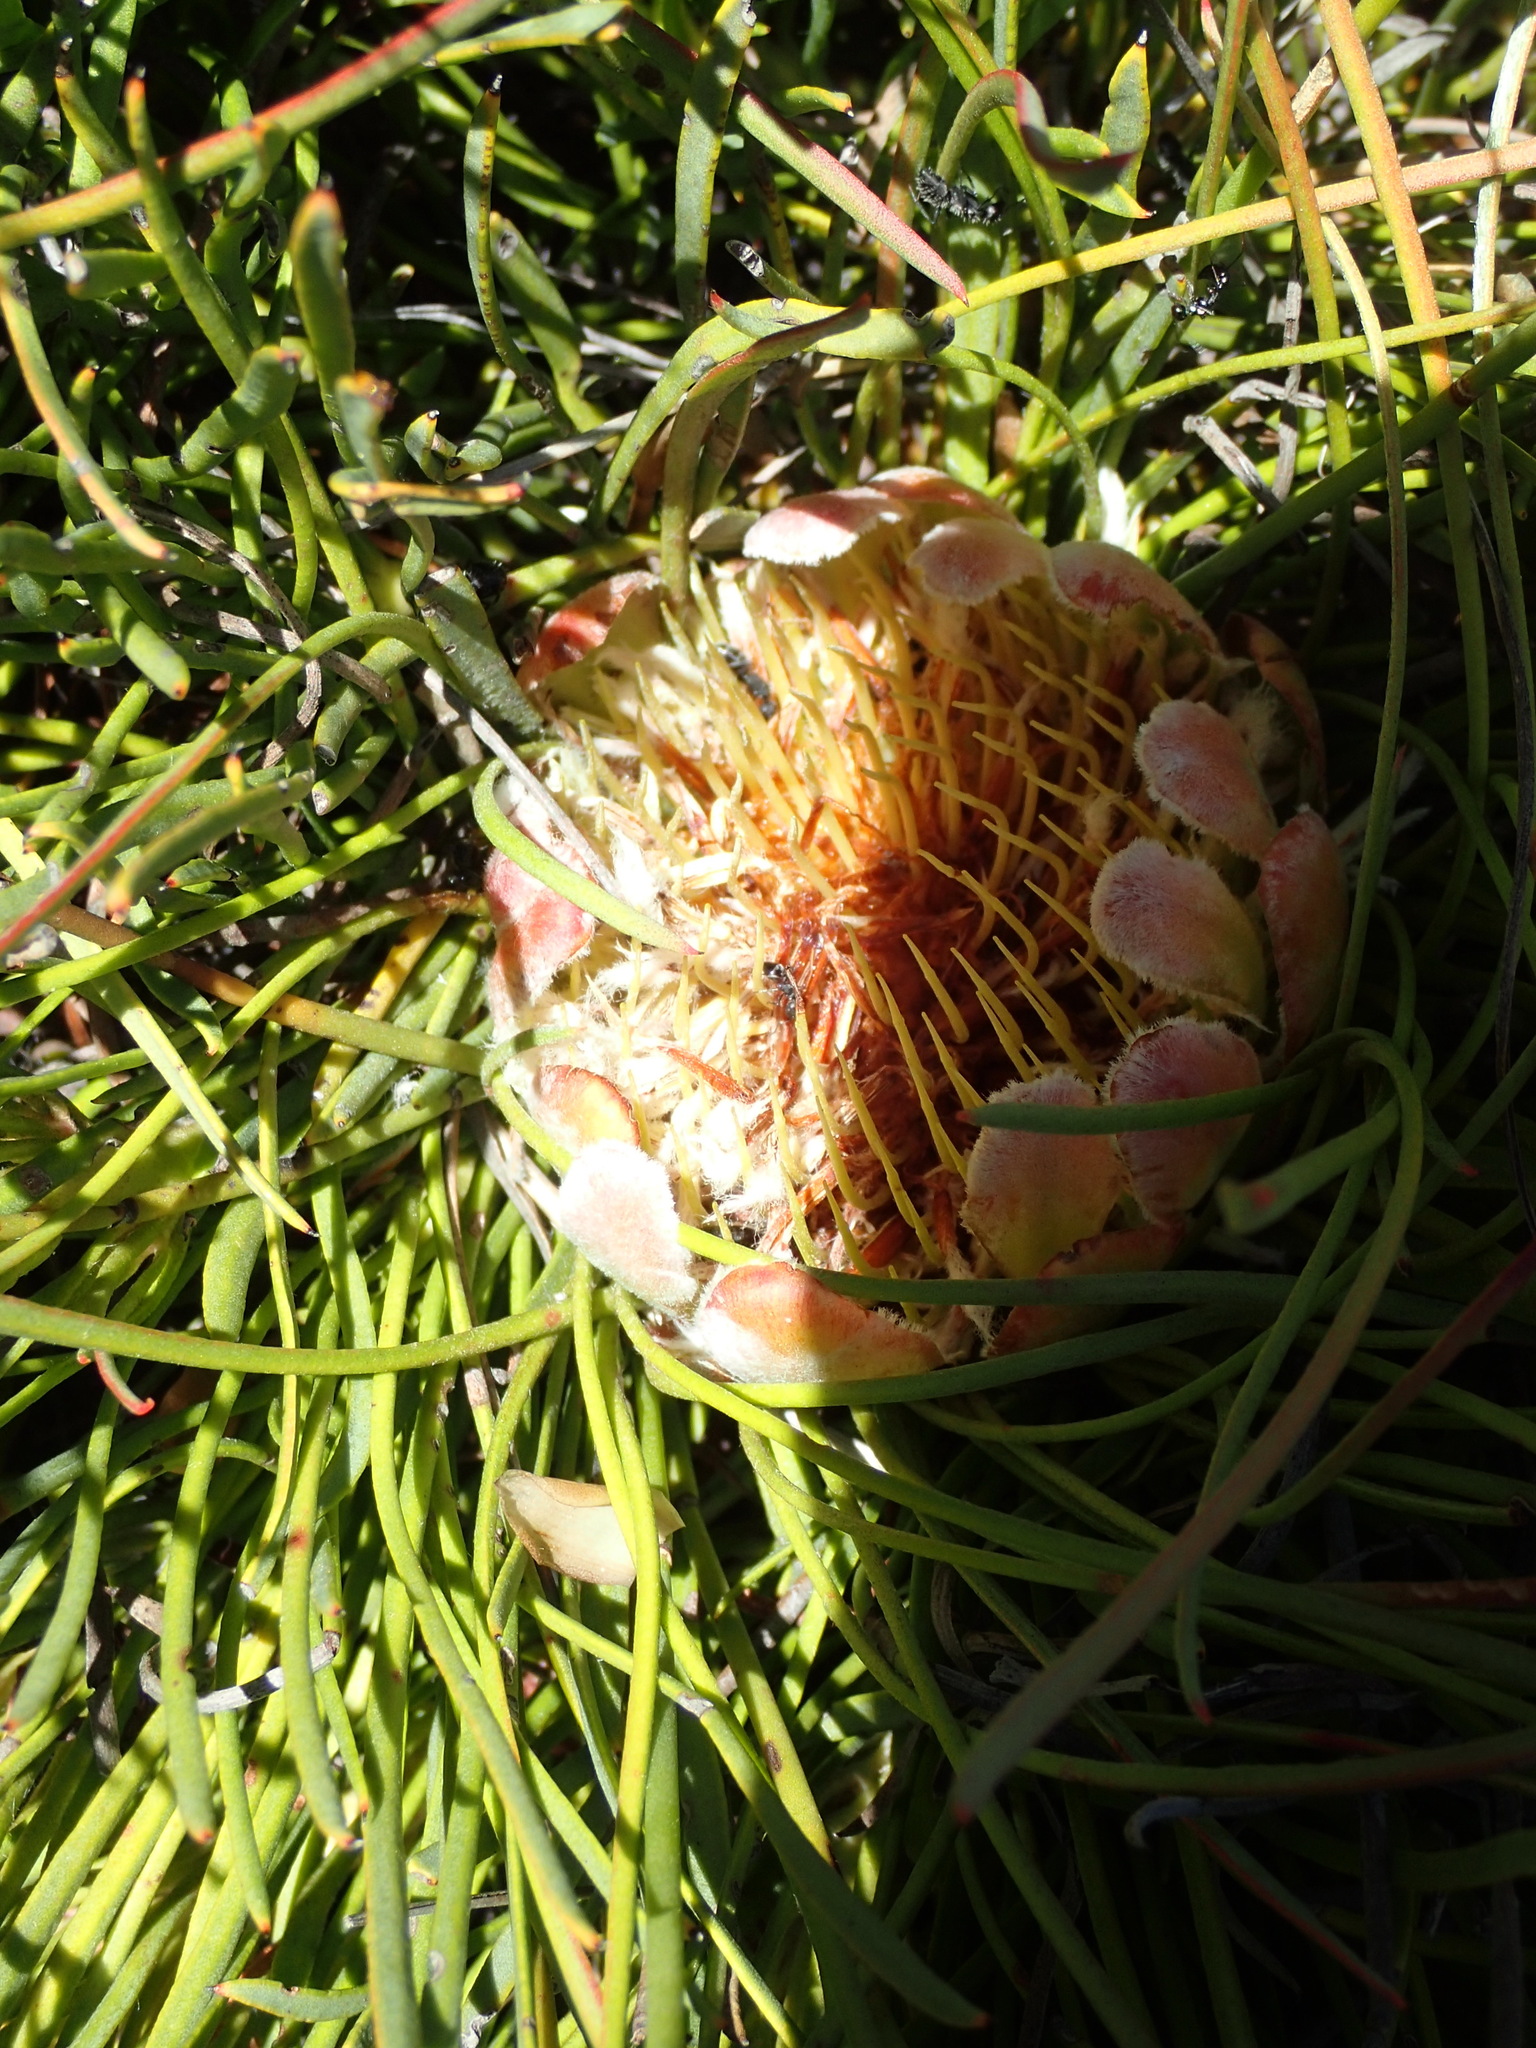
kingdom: Plantae
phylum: Tracheophyta
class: Magnoliopsida
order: Proteales
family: Proteaceae
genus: Protea
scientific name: Protea montana
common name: Swartberg sugarbush
